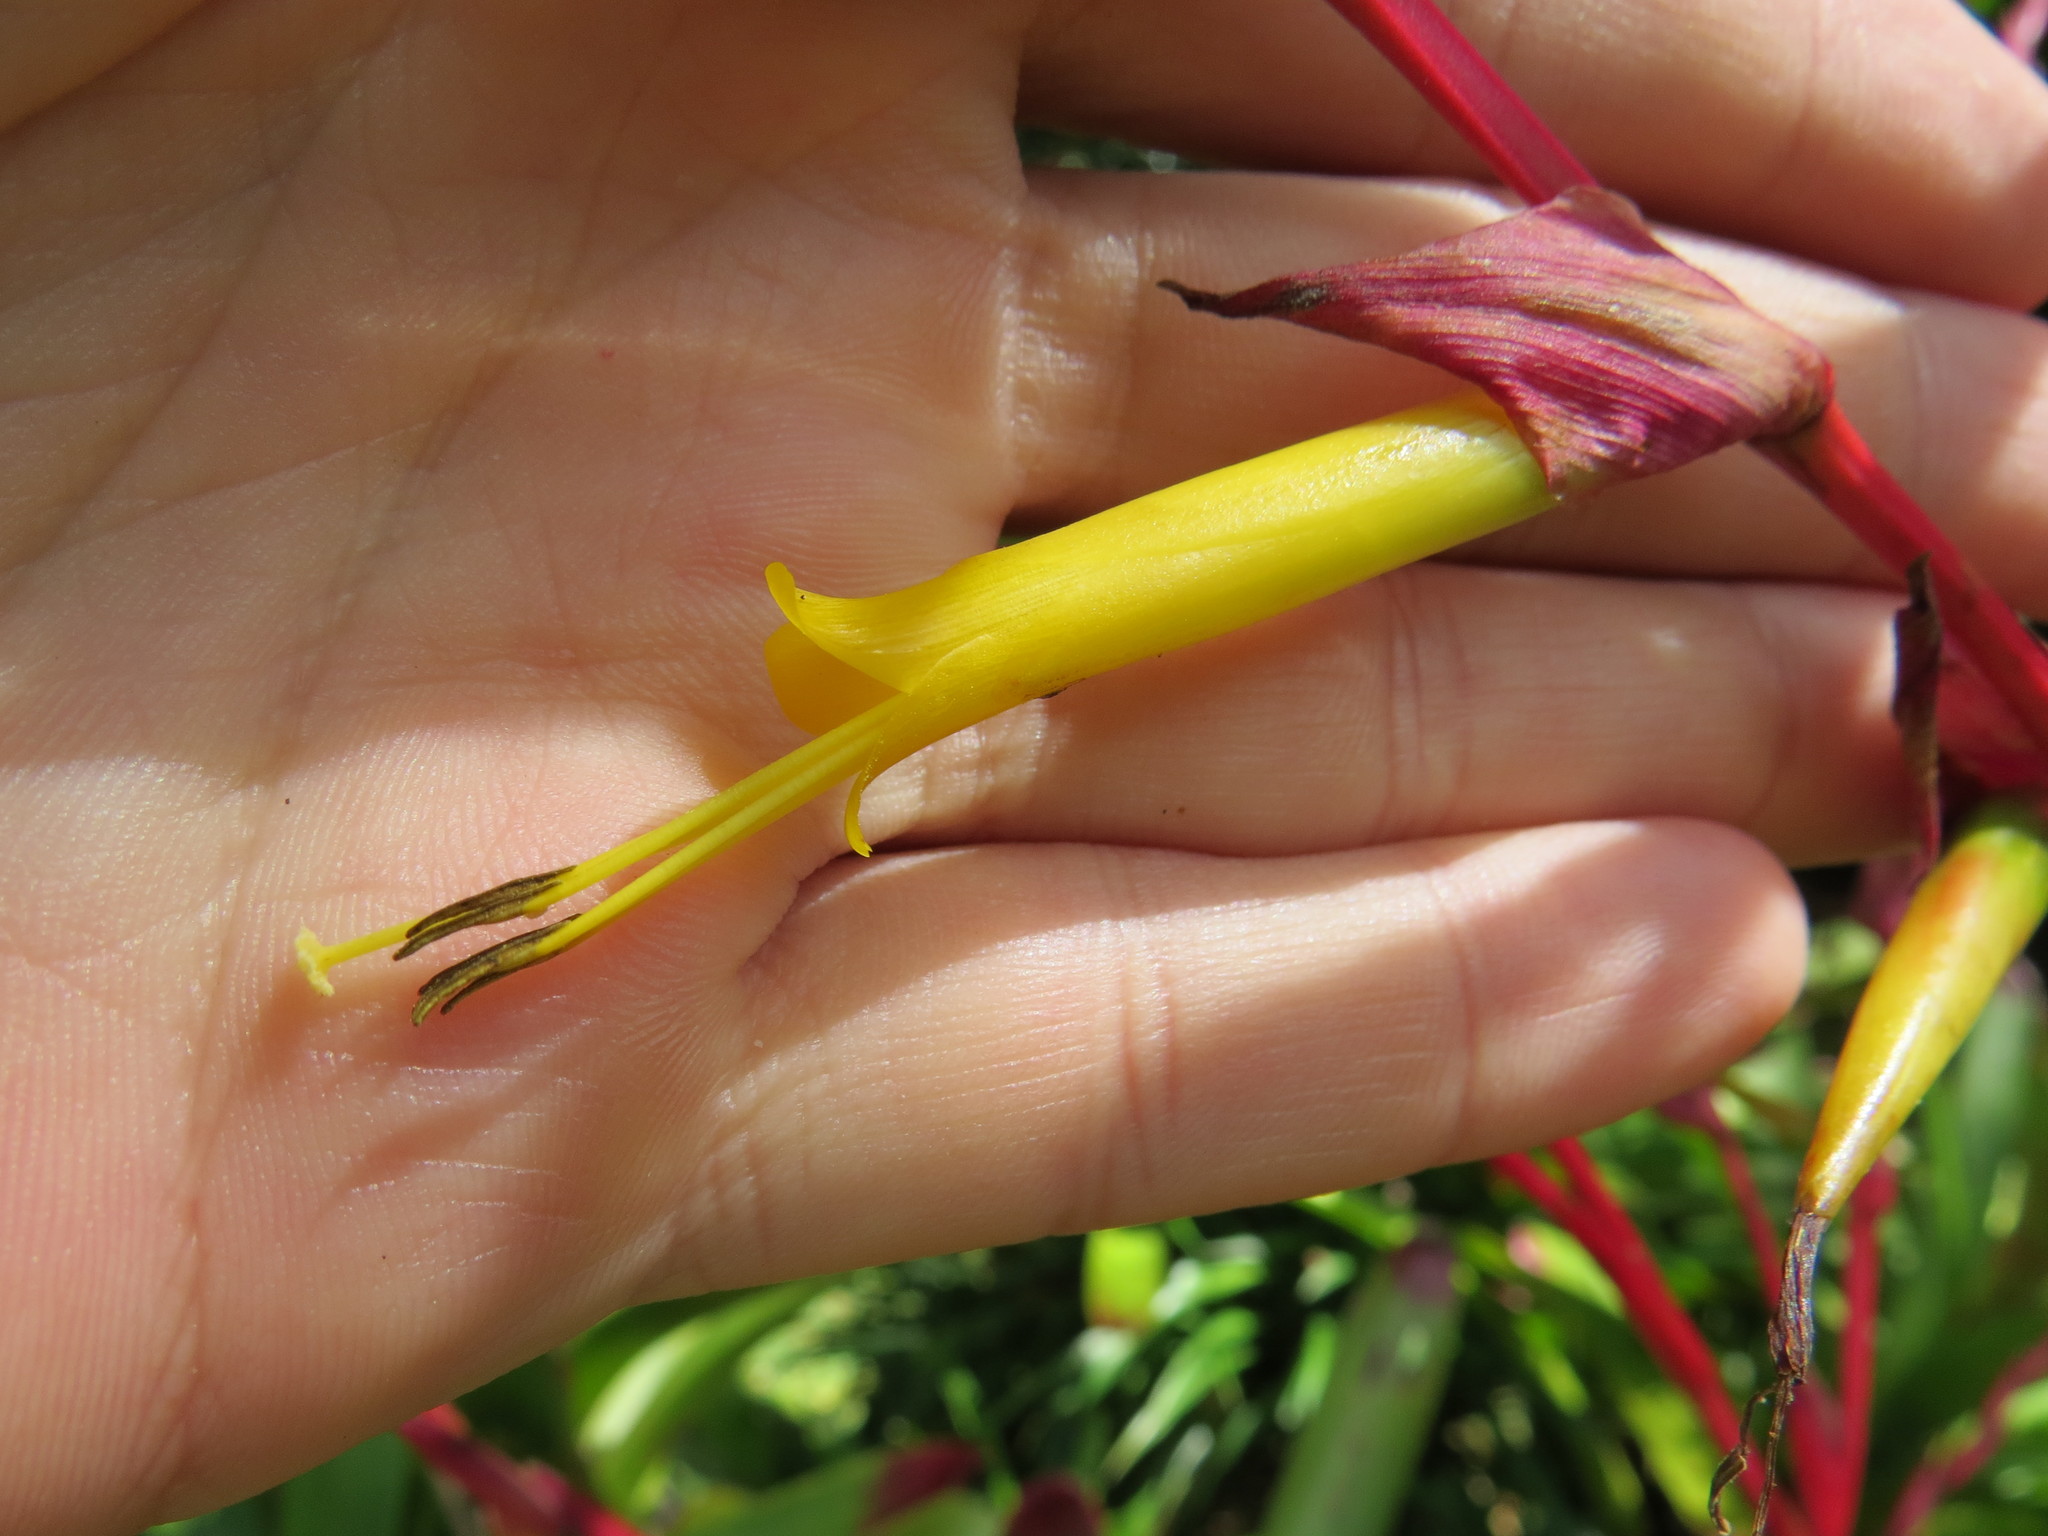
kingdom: Plantae
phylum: Tracheophyta
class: Liliopsida
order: Poales
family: Bromeliaceae
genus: Vriesea
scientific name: Vriesea philippocoburgi
